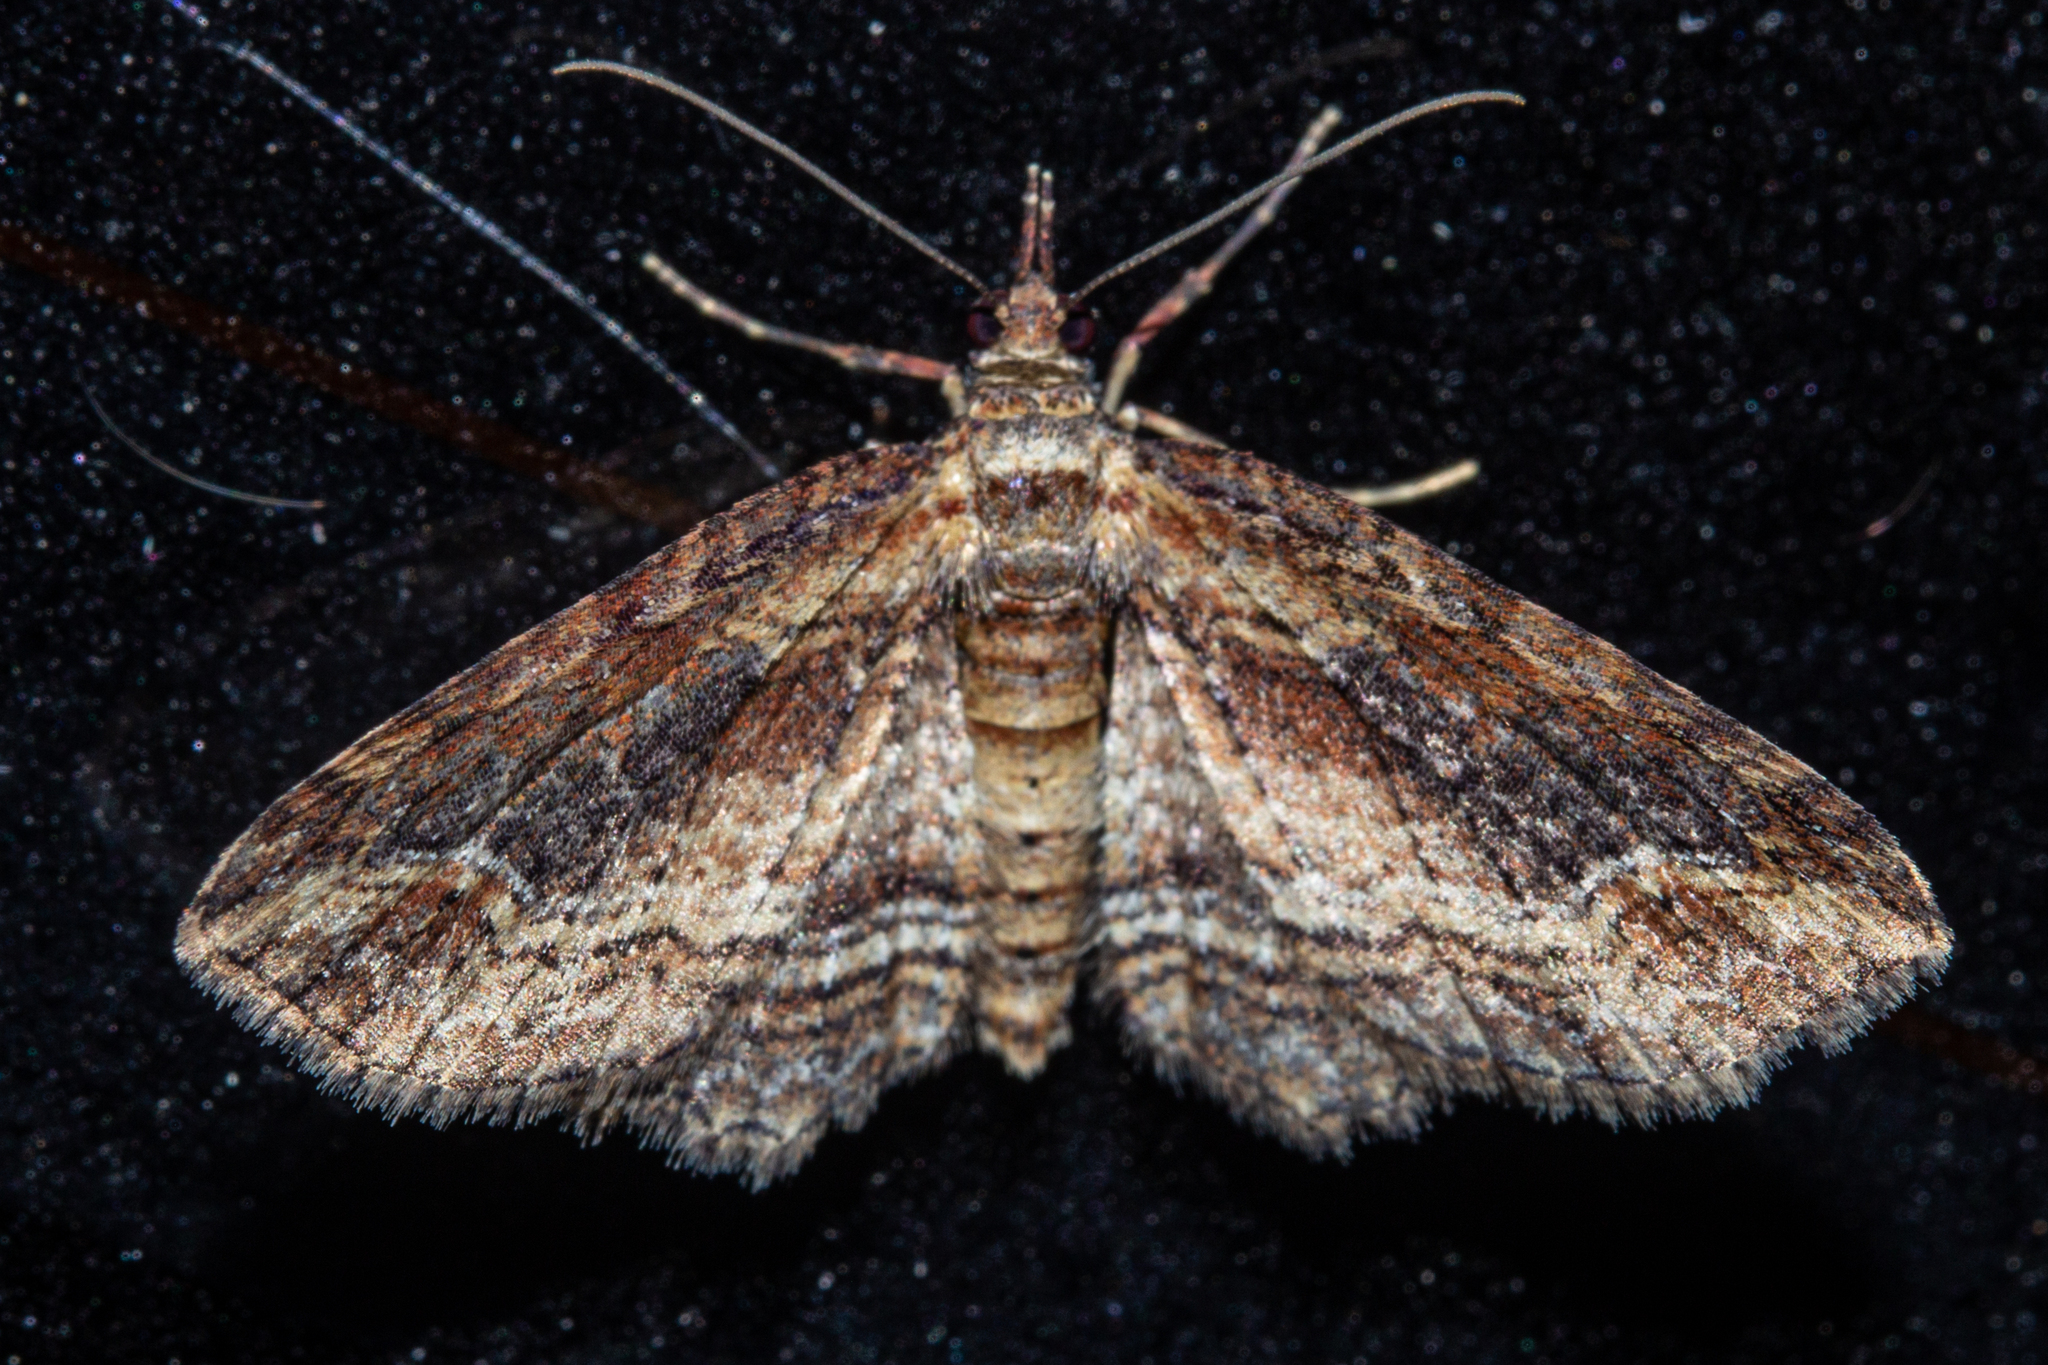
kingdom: Animalia
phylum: Arthropoda
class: Insecta
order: Lepidoptera
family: Geometridae
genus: Chloroclystis
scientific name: Chloroclystis filata
